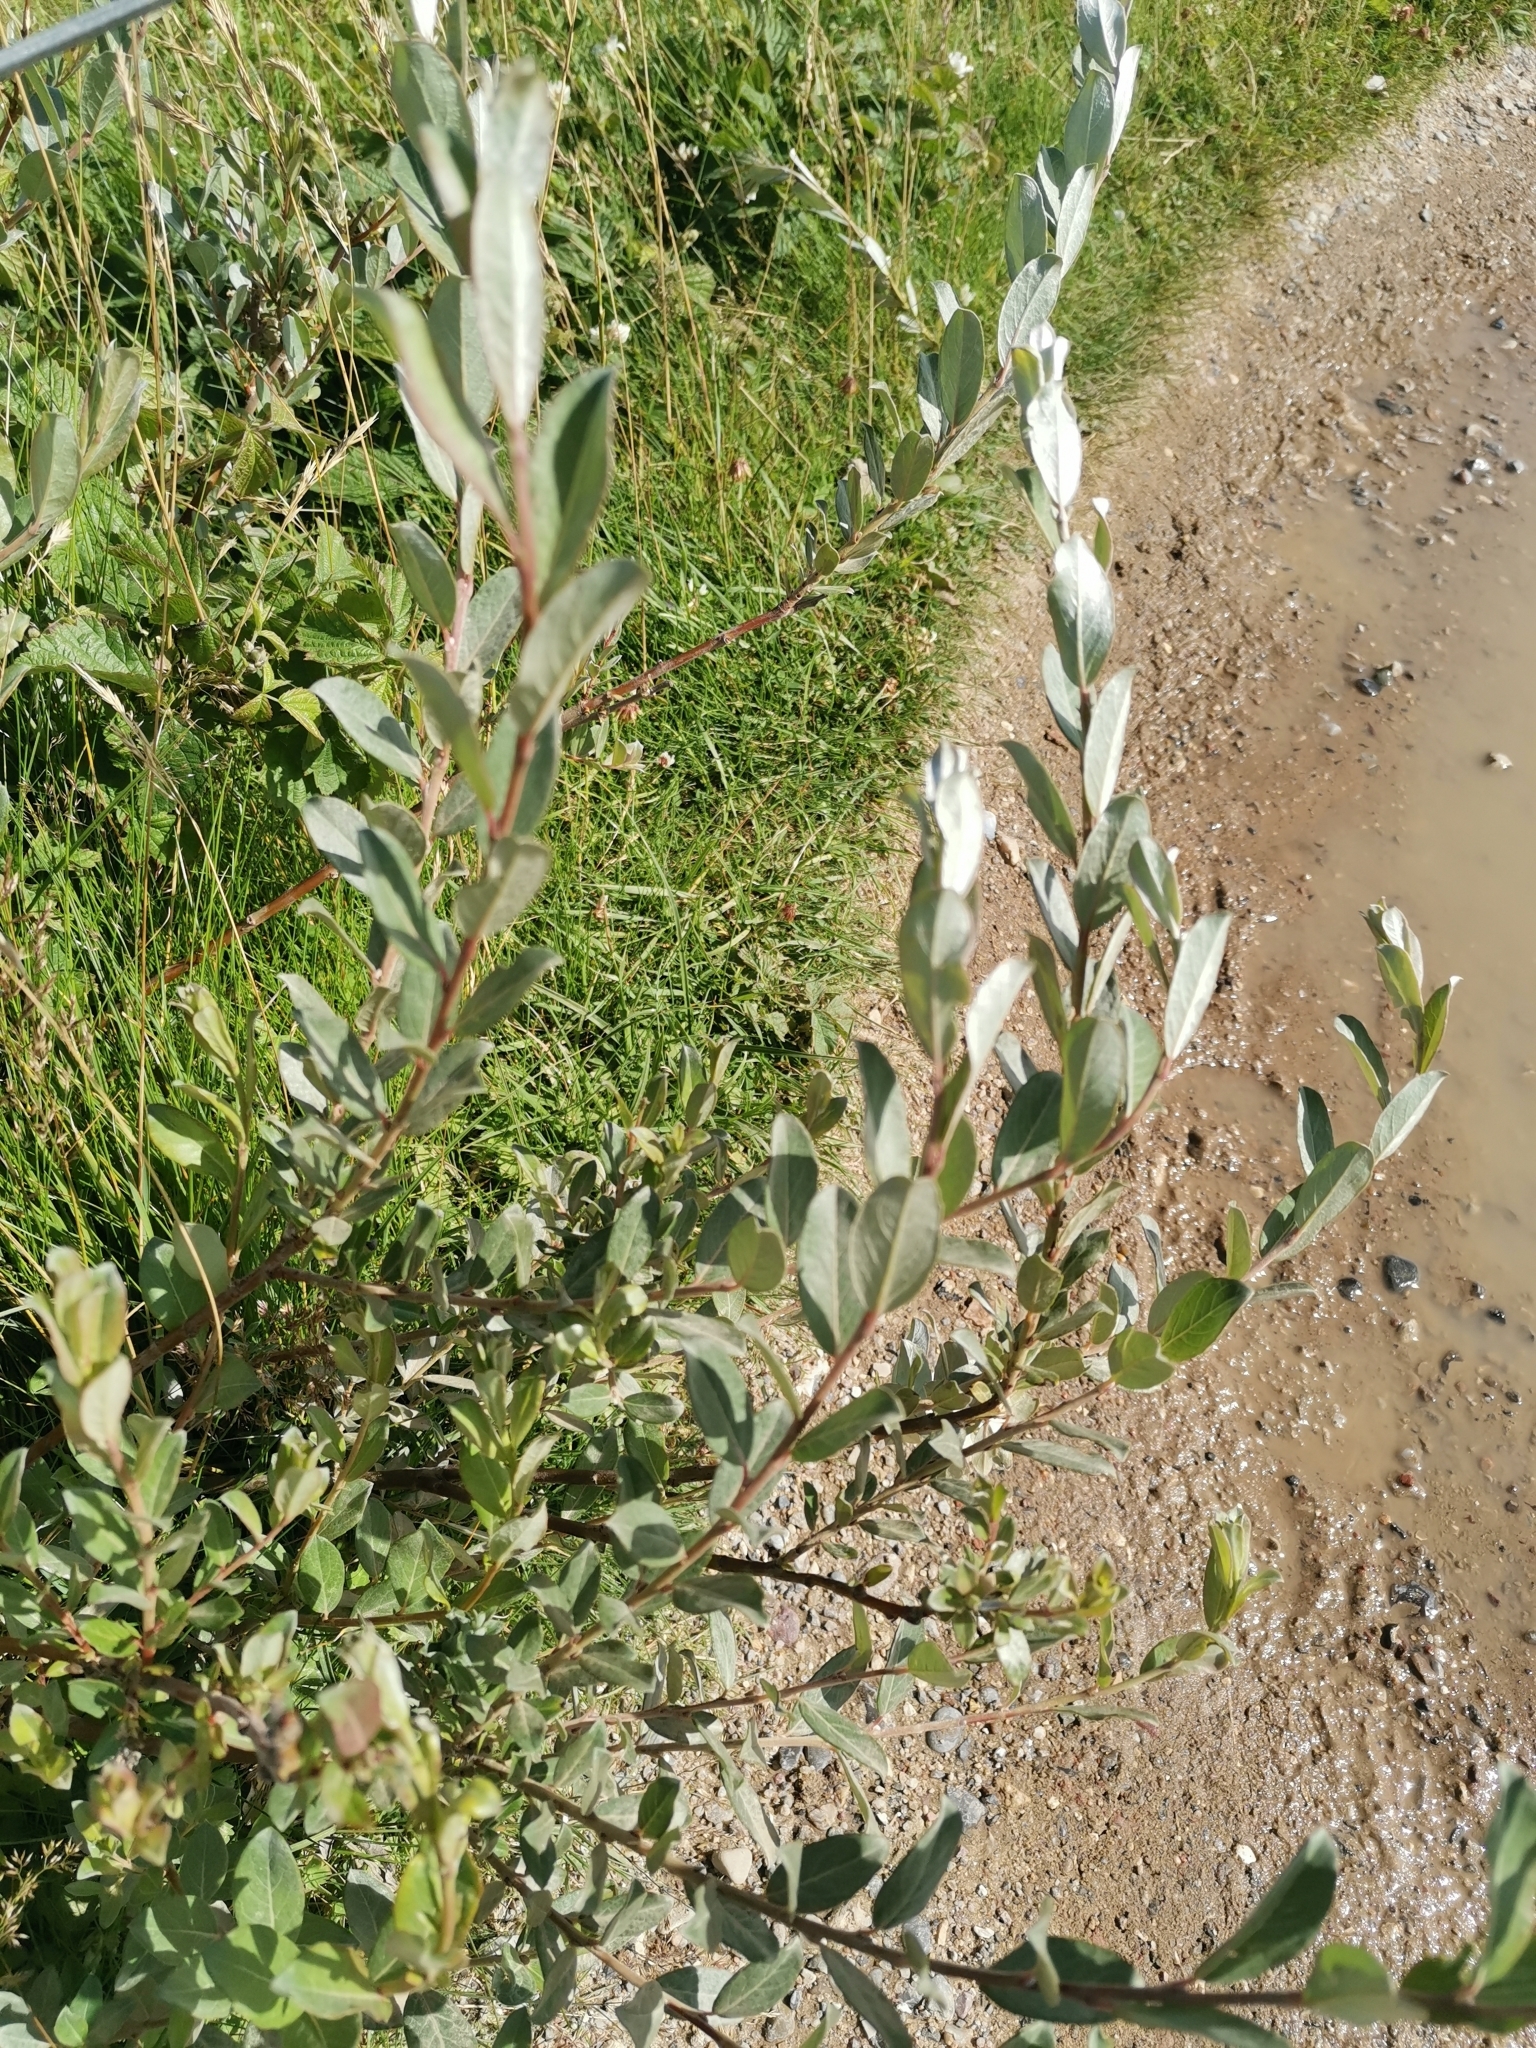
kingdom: Plantae
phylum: Tracheophyta
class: Magnoliopsida
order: Malpighiales
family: Salicaceae
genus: Salix
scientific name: Salix repens
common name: Creeping willow
